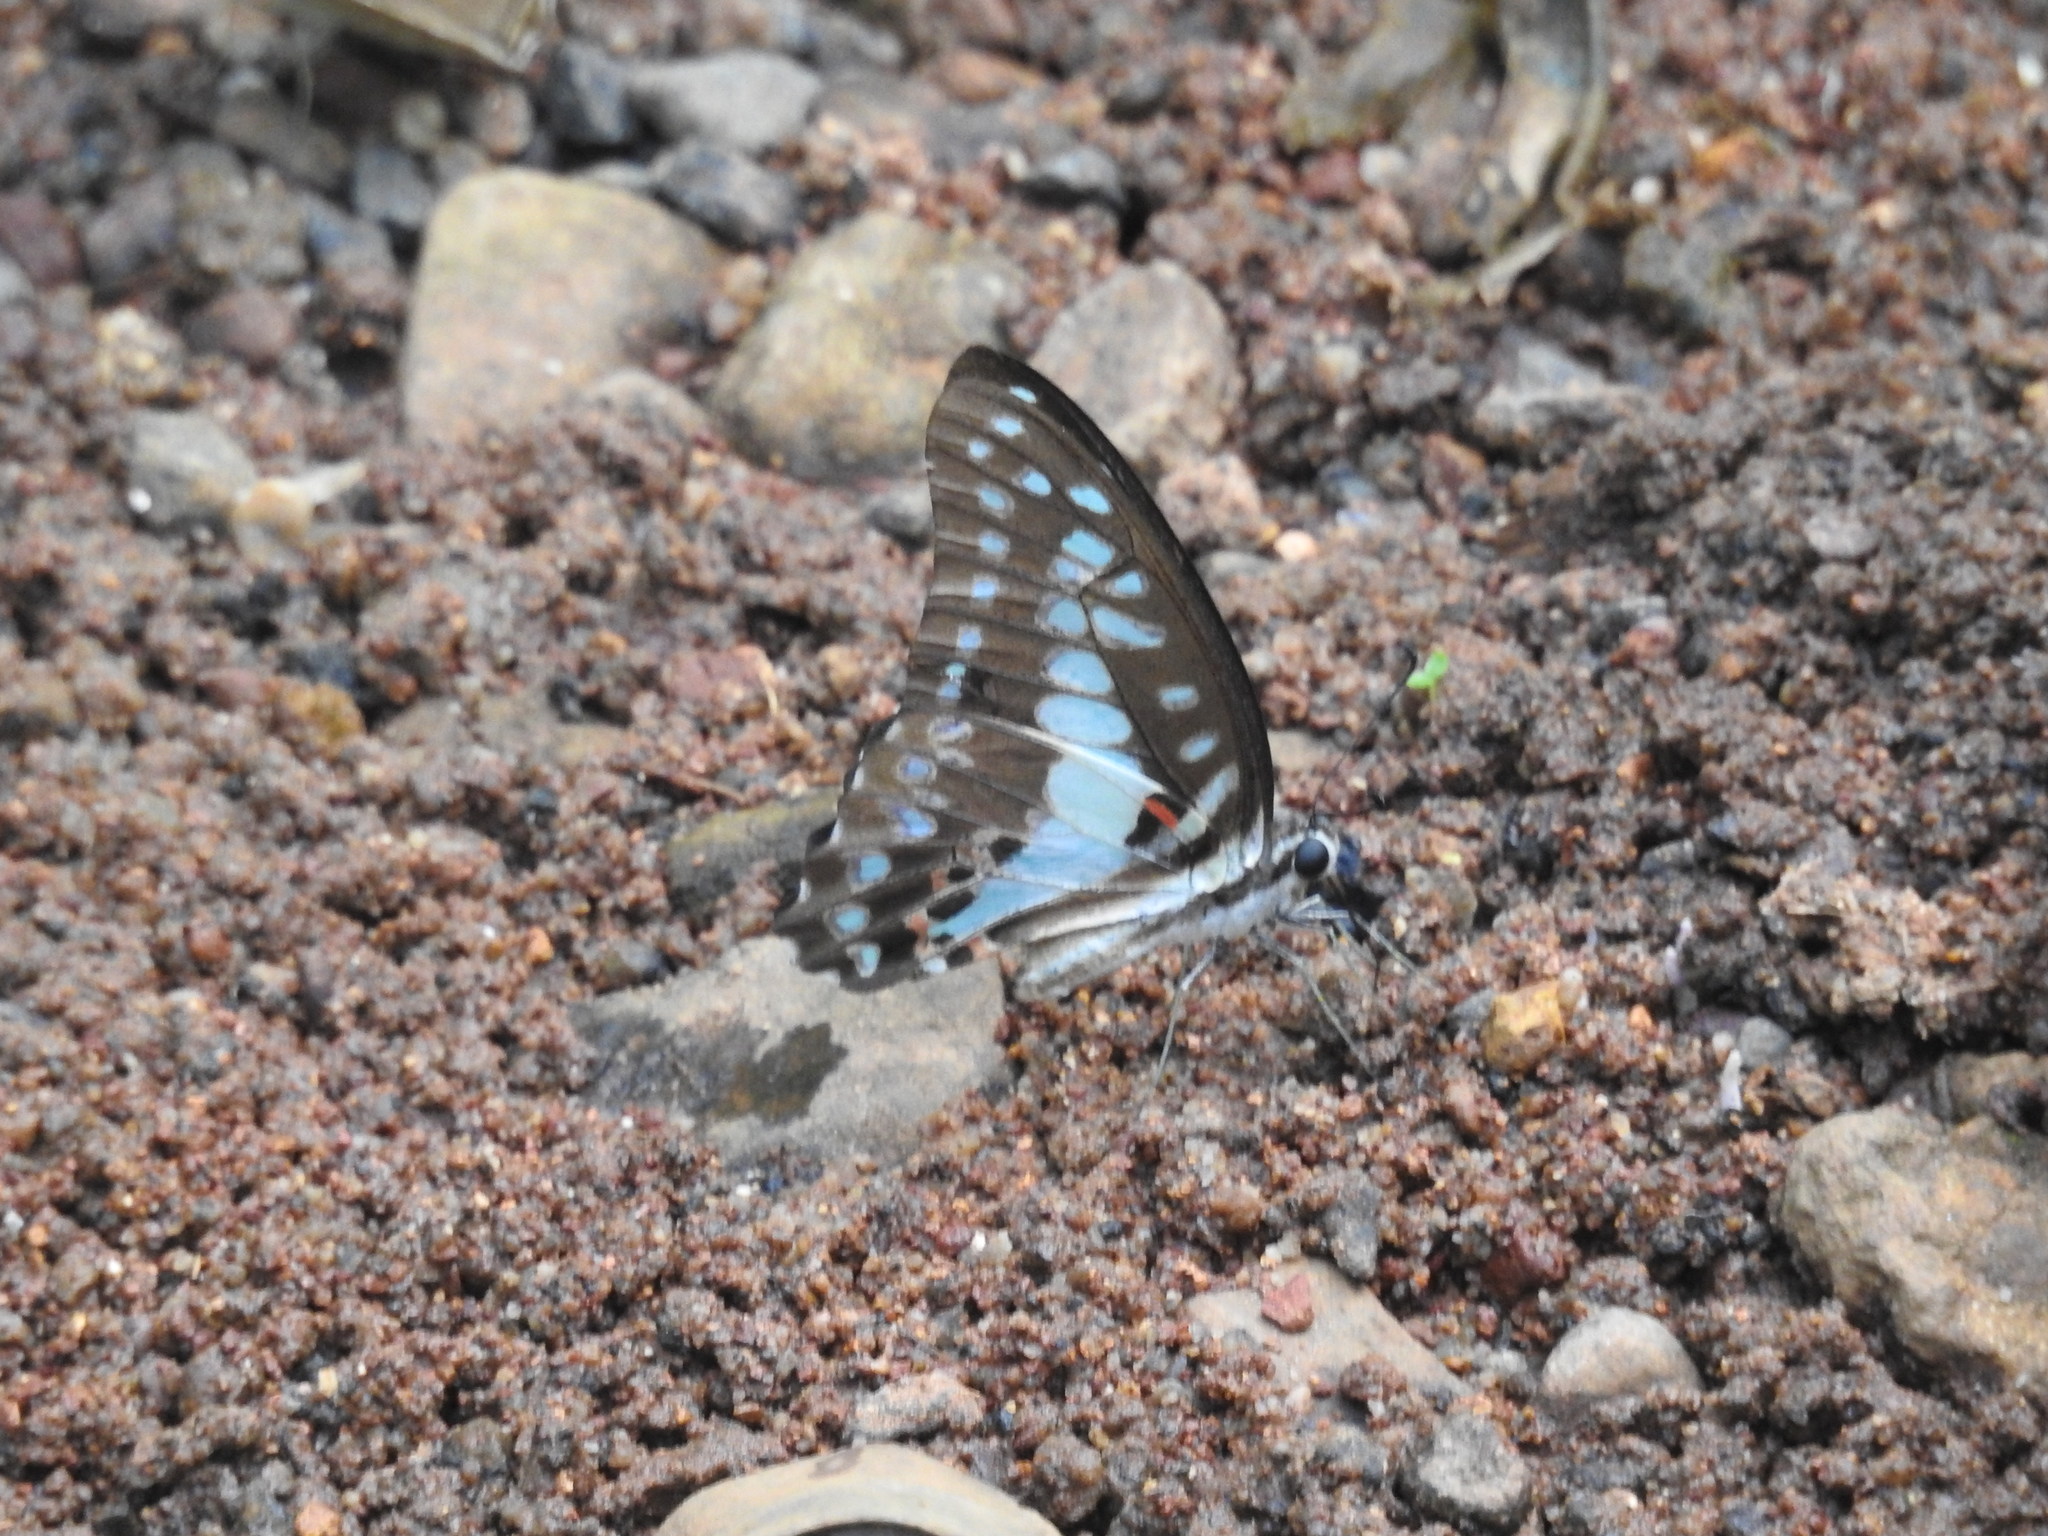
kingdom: Animalia
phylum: Arthropoda
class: Insecta
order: Lepidoptera
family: Papilionidae
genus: Graphium
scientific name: Graphium doson
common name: Common jay
